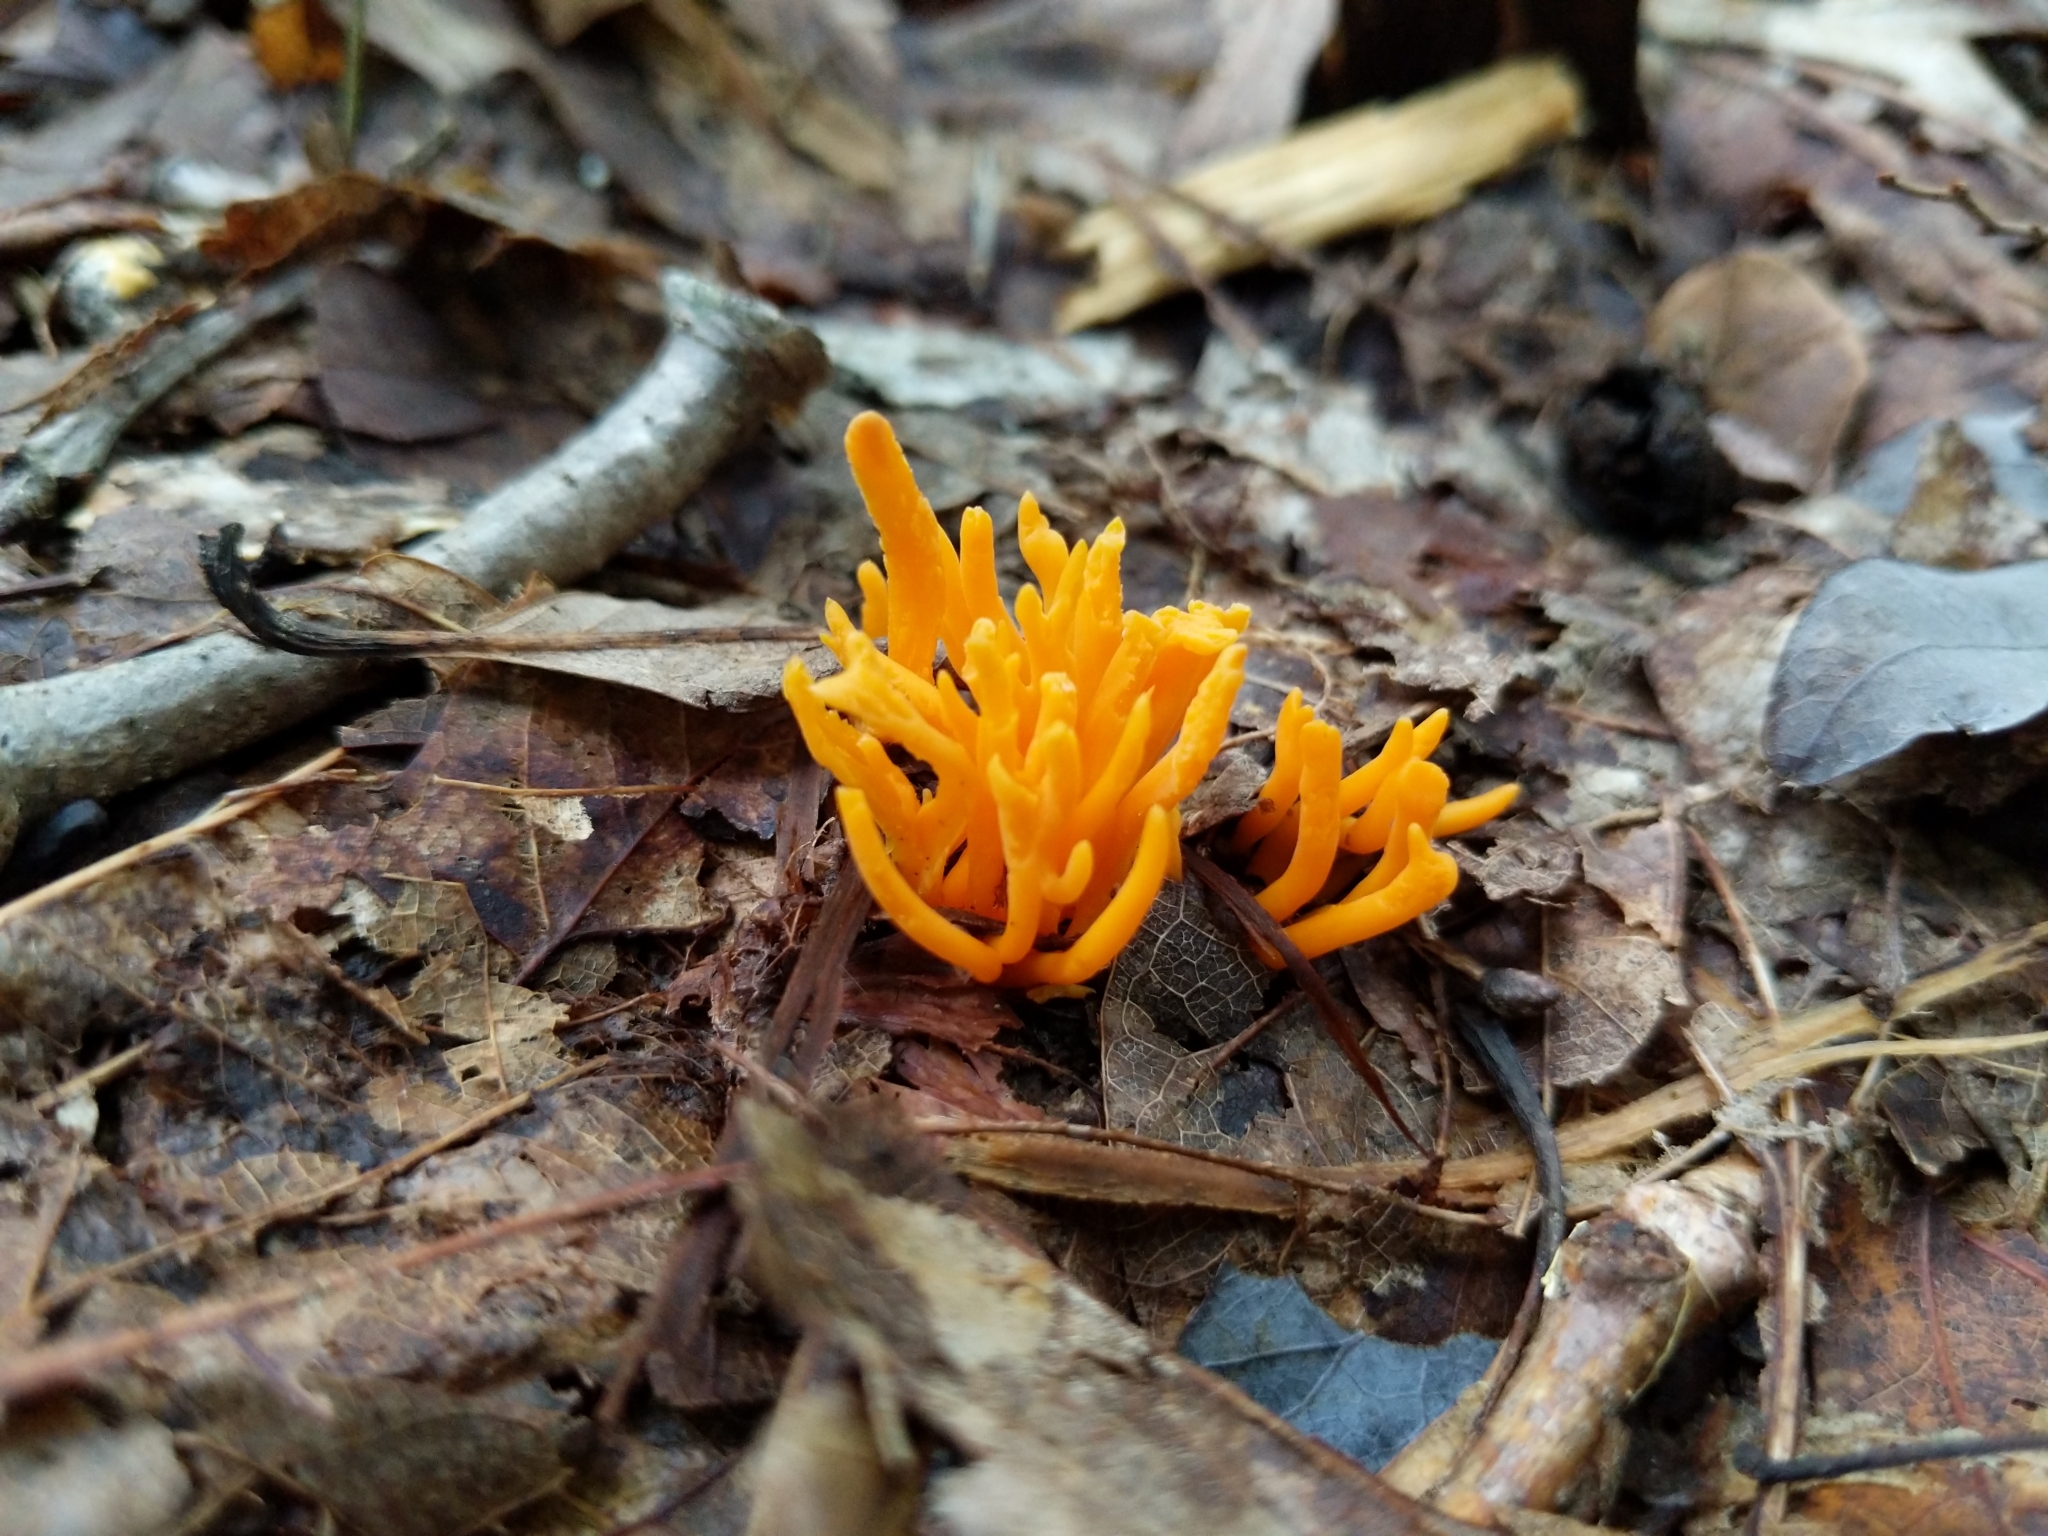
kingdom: Fungi
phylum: Basidiomycota
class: Dacrymycetes
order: Dacrymycetales
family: Dacrymycetaceae
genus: Calocera
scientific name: Calocera viscosa
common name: Yellow stagshorn
